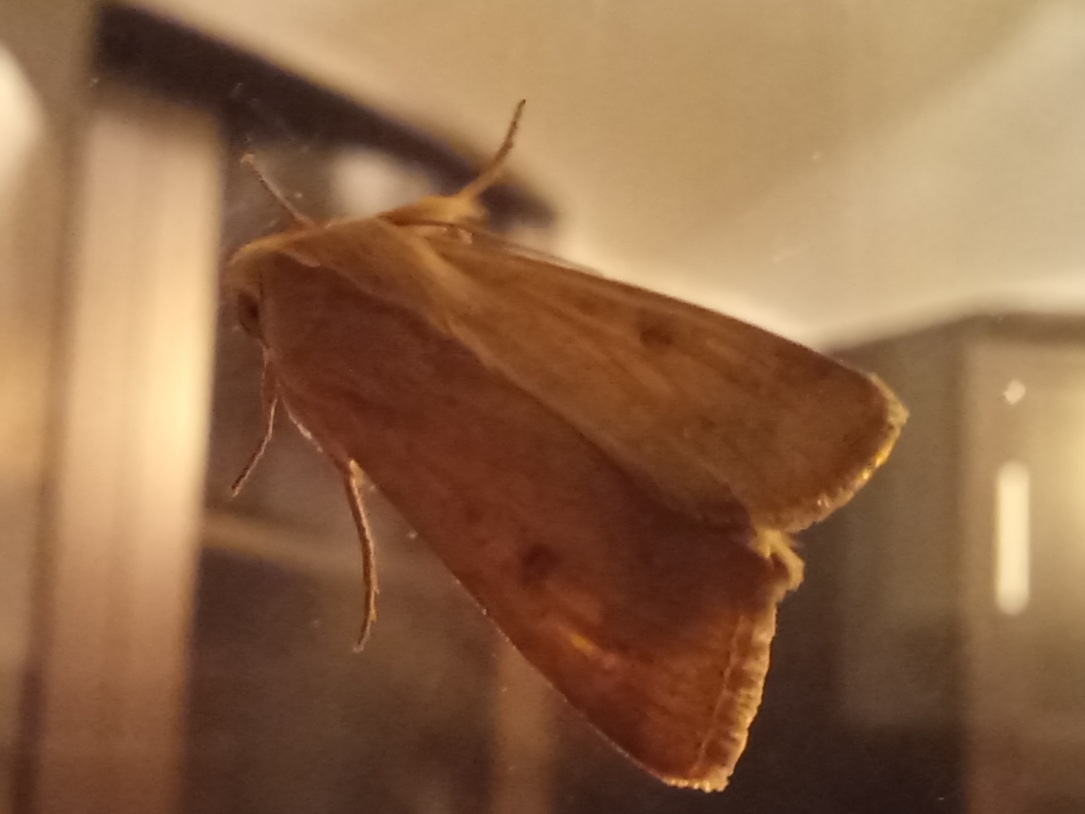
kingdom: Animalia
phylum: Arthropoda
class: Insecta
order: Lepidoptera
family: Noctuidae
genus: Helicoverpa
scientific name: Helicoverpa armigera
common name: Cotton bollworm
